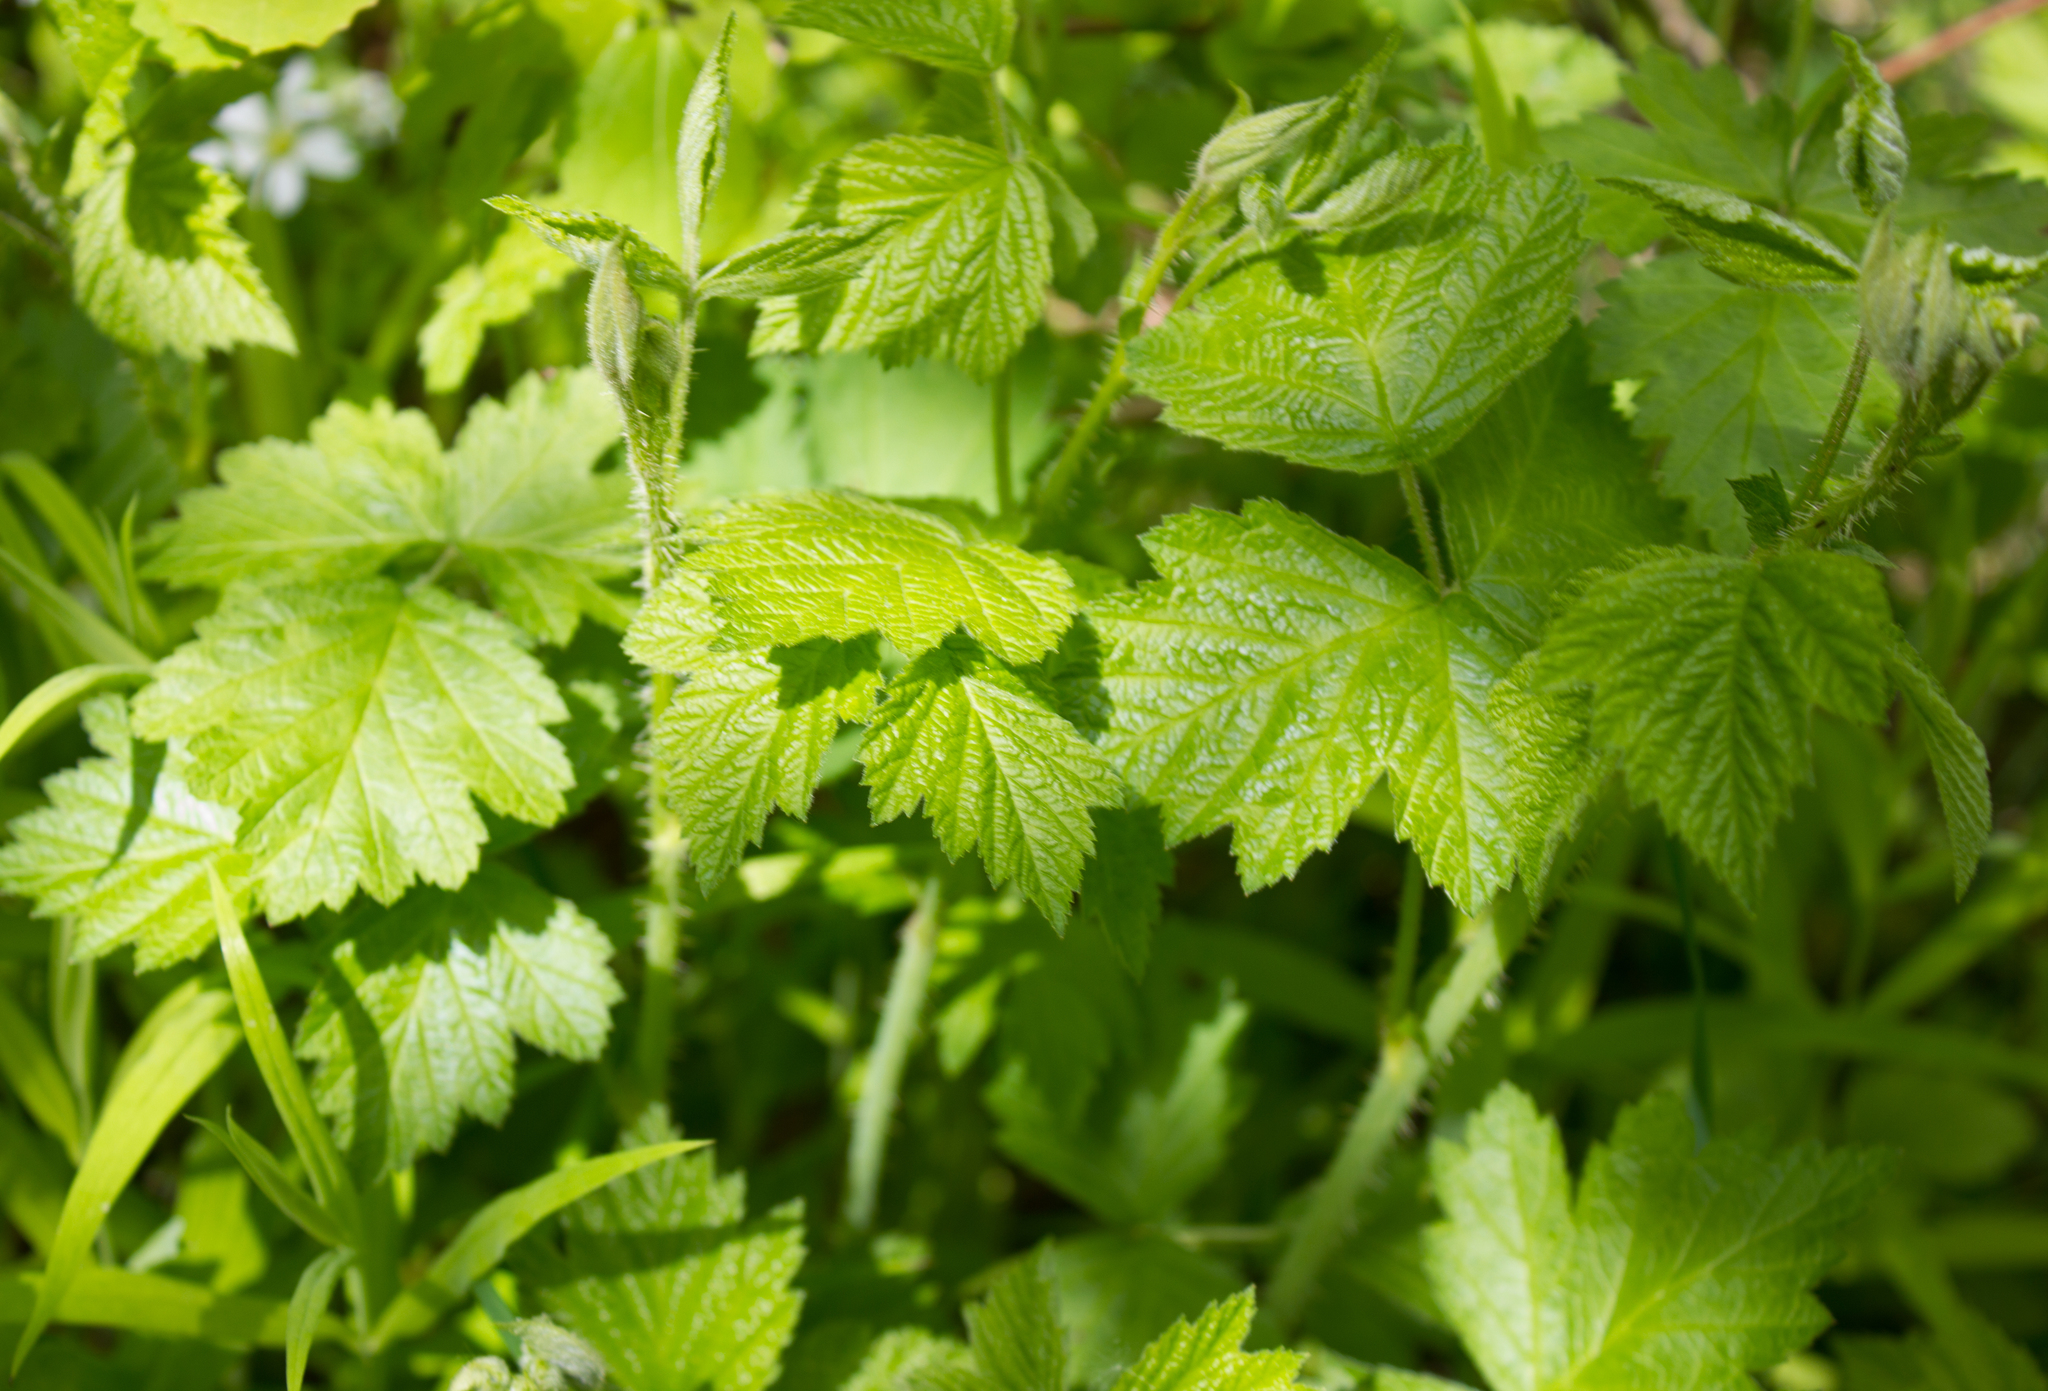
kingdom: Plantae
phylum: Tracheophyta
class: Magnoliopsida
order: Rosales
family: Rosaceae
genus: Rubus
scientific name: Rubus caesius
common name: Dewberry
